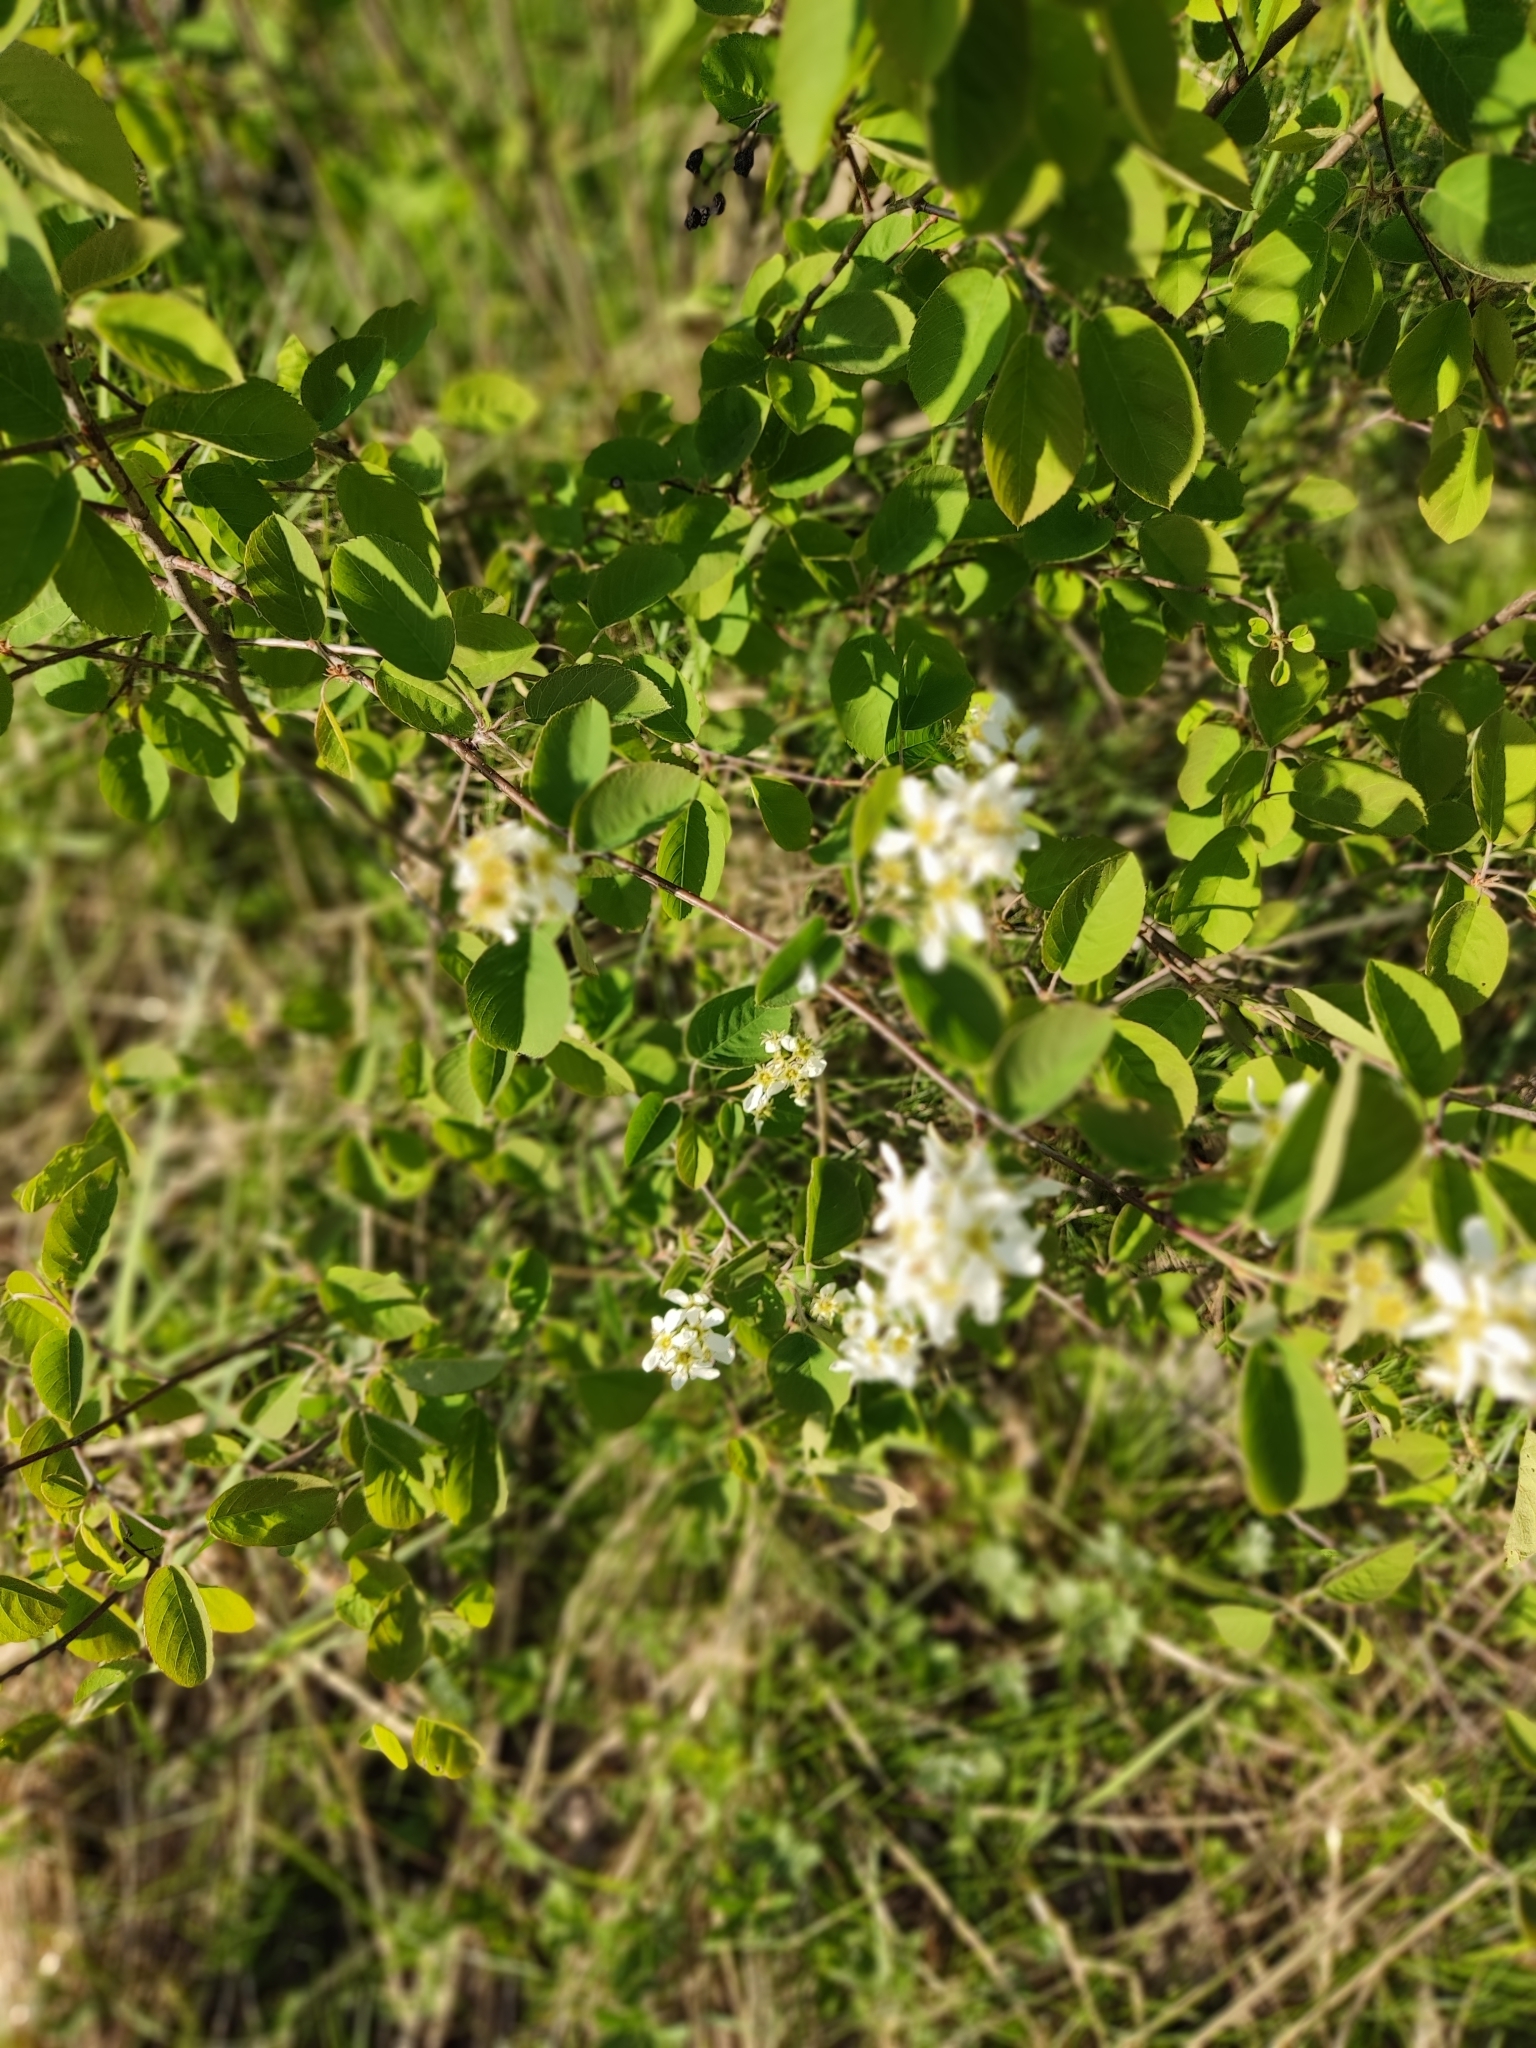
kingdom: Plantae
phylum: Tracheophyta
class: Magnoliopsida
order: Rosales
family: Rosaceae
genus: Amelanchier
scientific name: Amelanchier
